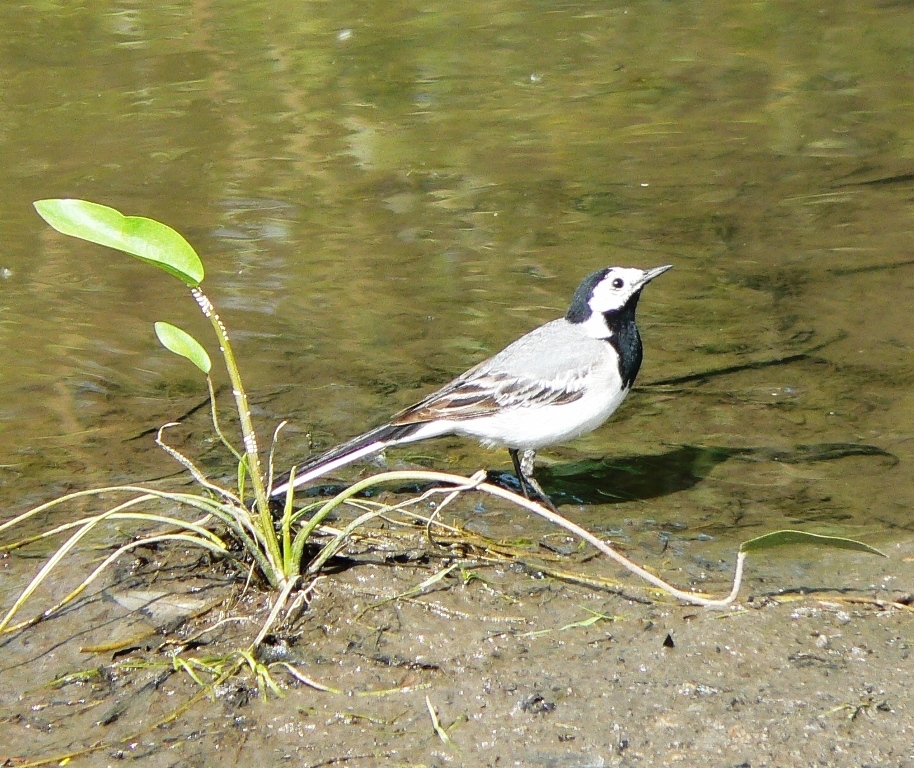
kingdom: Animalia
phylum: Chordata
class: Aves
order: Passeriformes
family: Motacillidae
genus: Motacilla
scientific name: Motacilla alba
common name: White wagtail
